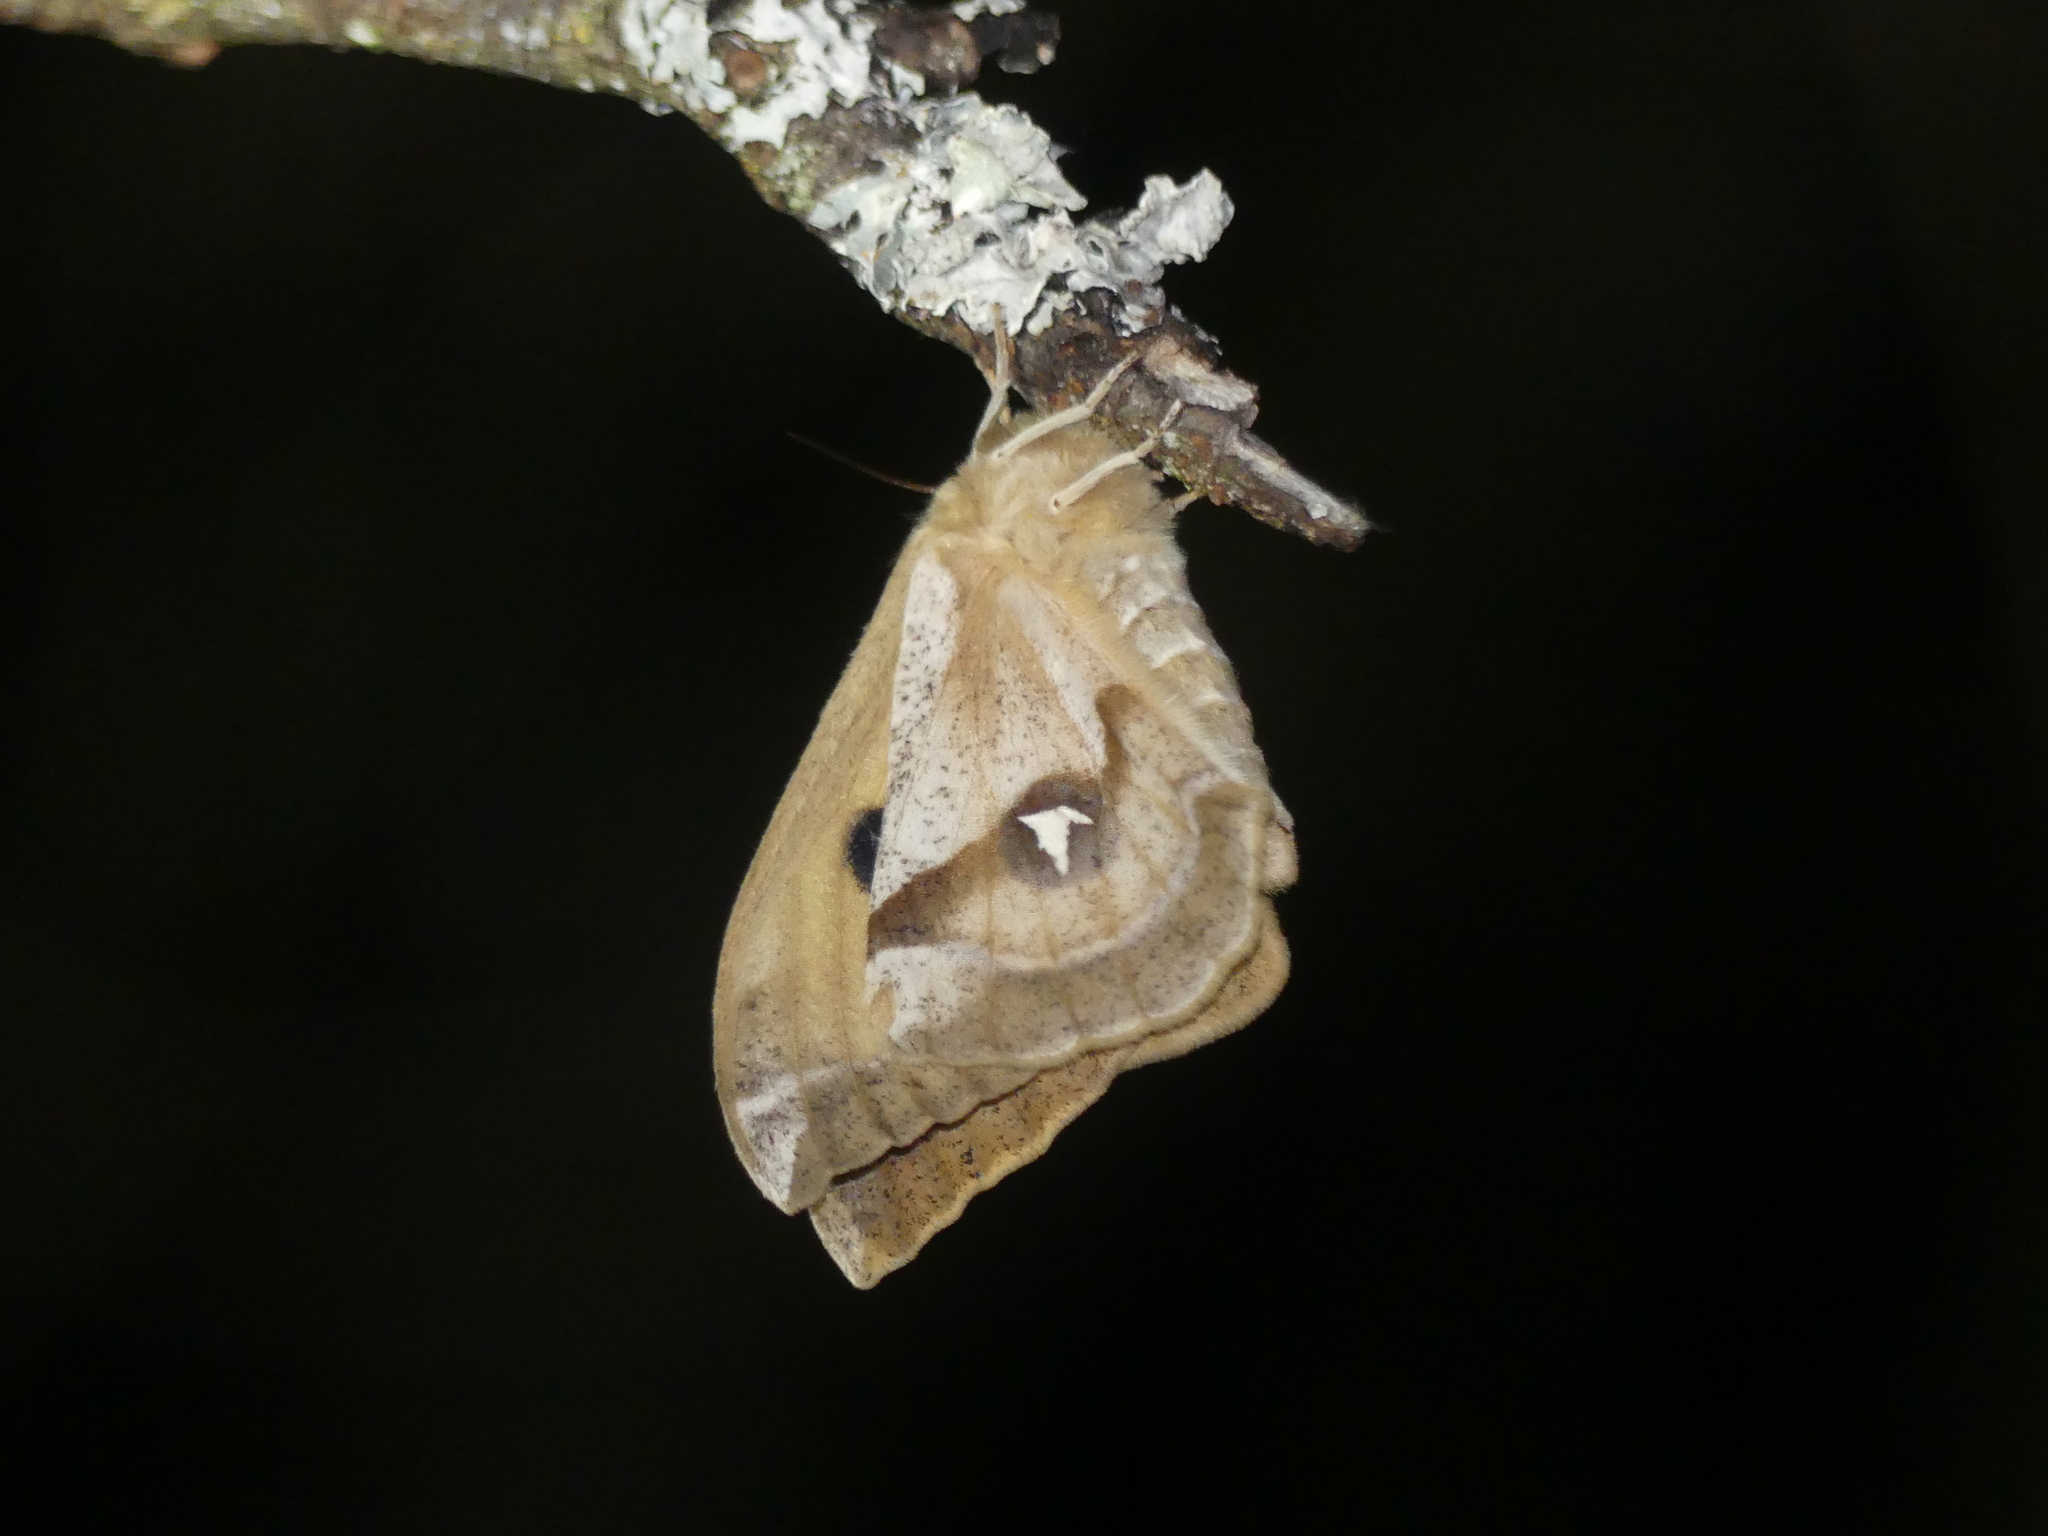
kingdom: Animalia
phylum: Arthropoda
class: Insecta
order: Lepidoptera
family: Saturniidae
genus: Aglia
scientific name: Aglia tau
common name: Tau emperor
